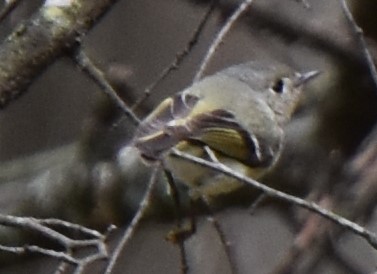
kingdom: Animalia
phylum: Chordata
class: Aves
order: Passeriformes
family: Regulidae
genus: Regulus
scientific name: Regulus calendula
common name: Ruby-crowned kinglet
